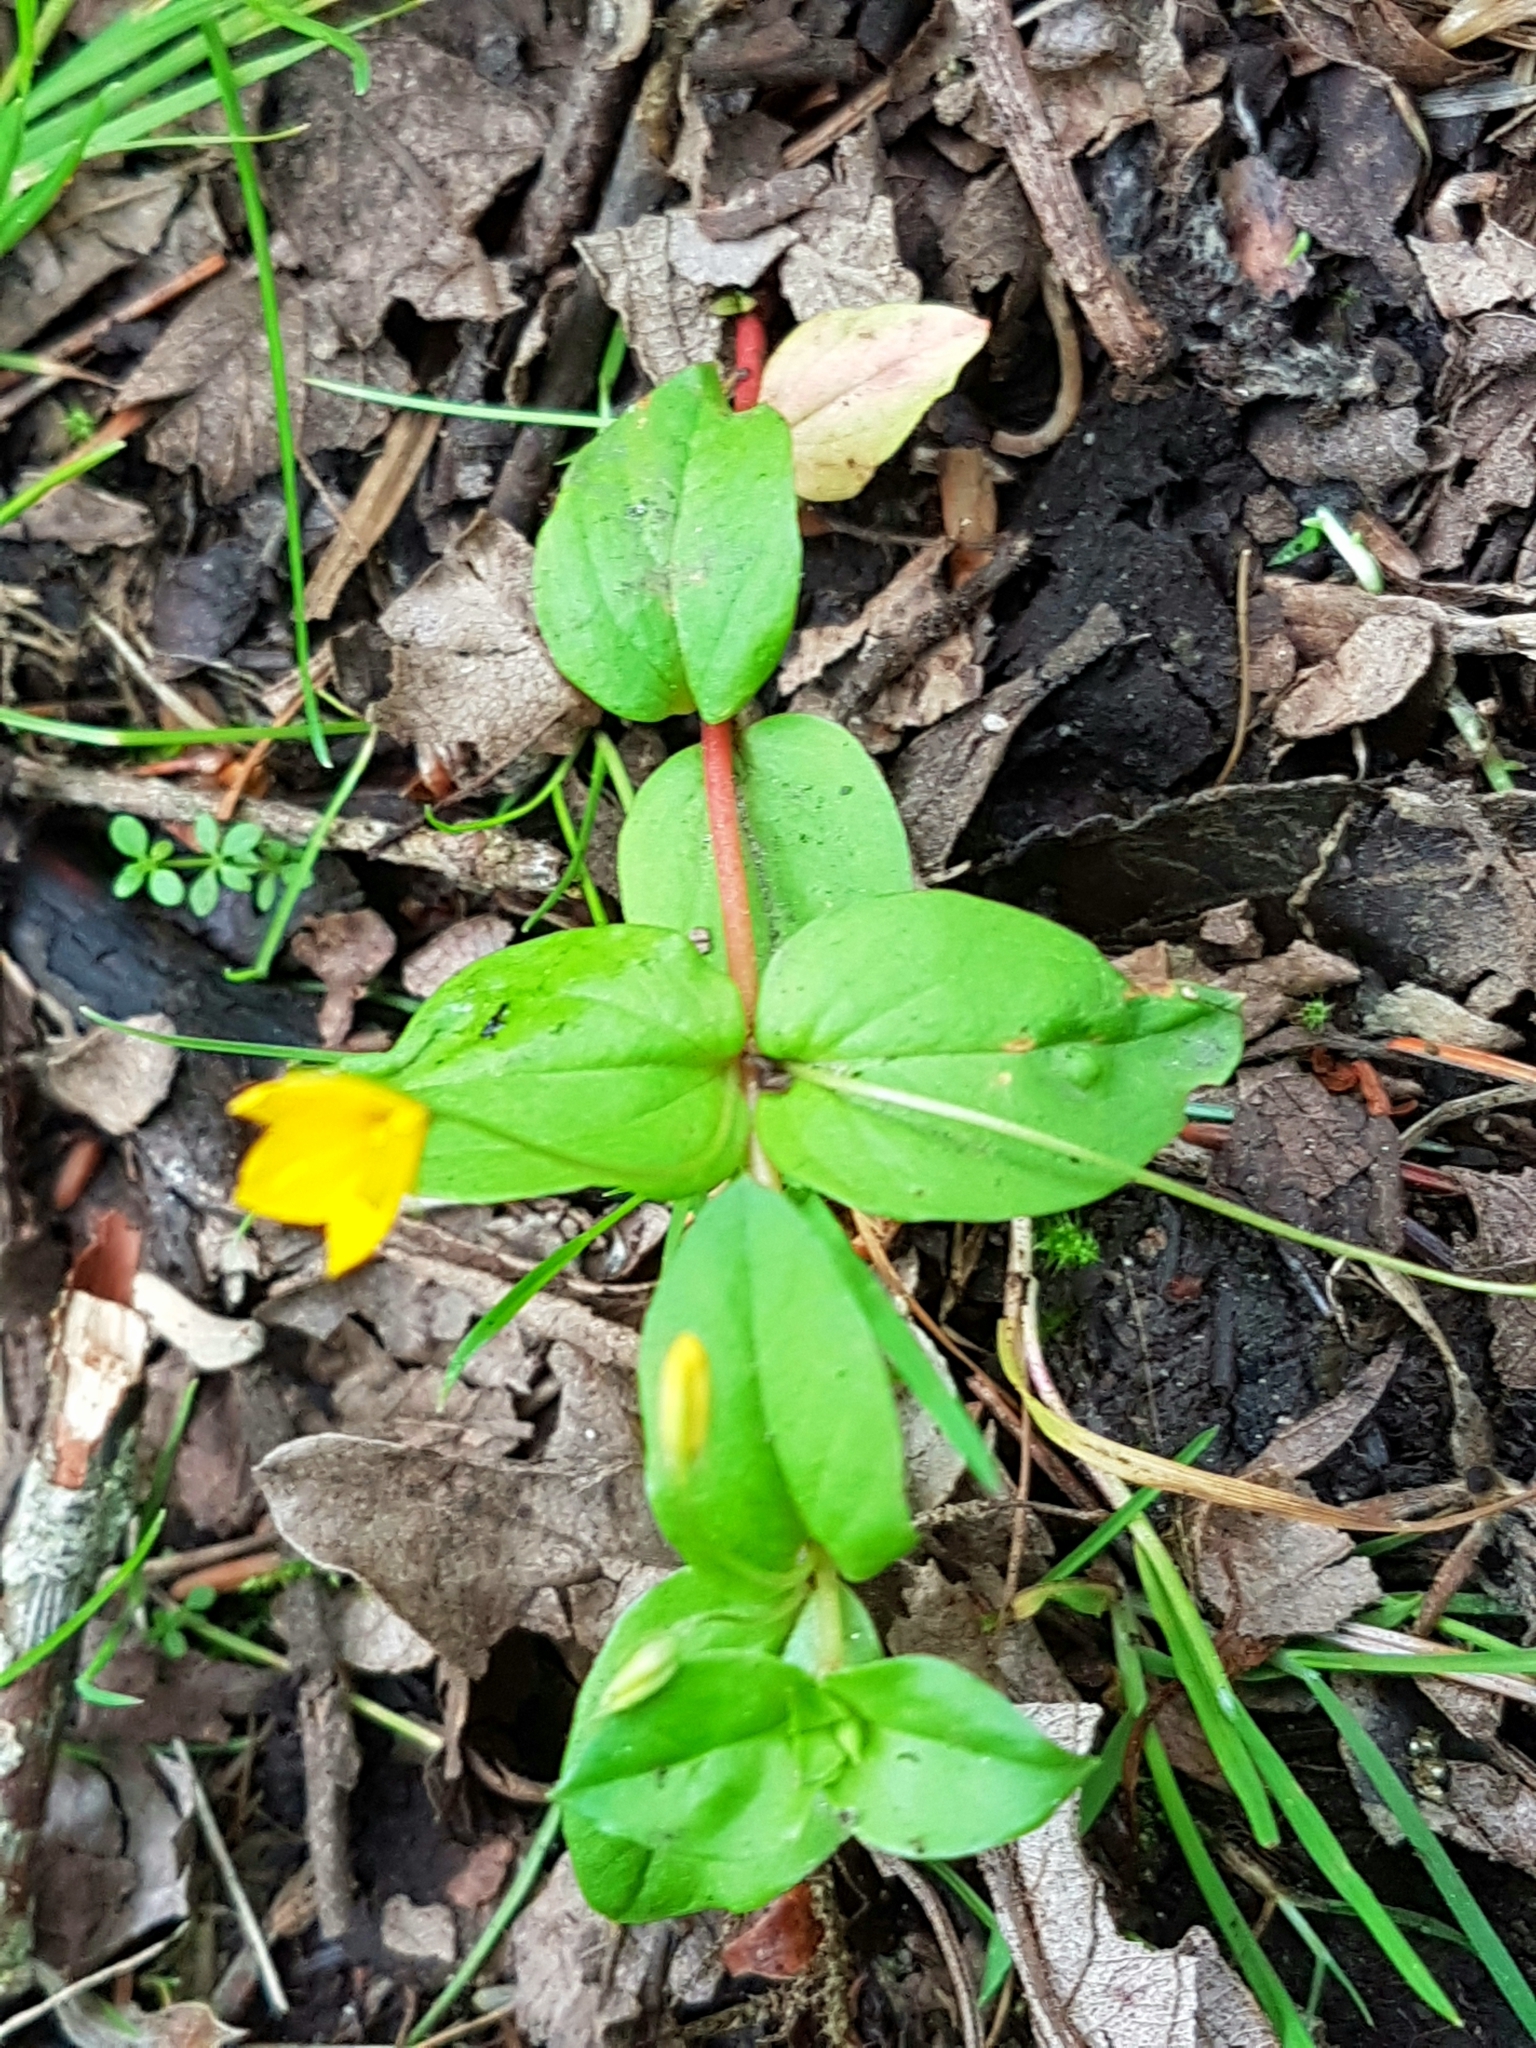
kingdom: Plantae
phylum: Tracheophyta
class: Magnoliopsida
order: Ericales
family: Primulaceae
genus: Lysimachia
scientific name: Lysimachia nemorum
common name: Yellow pimpernel
